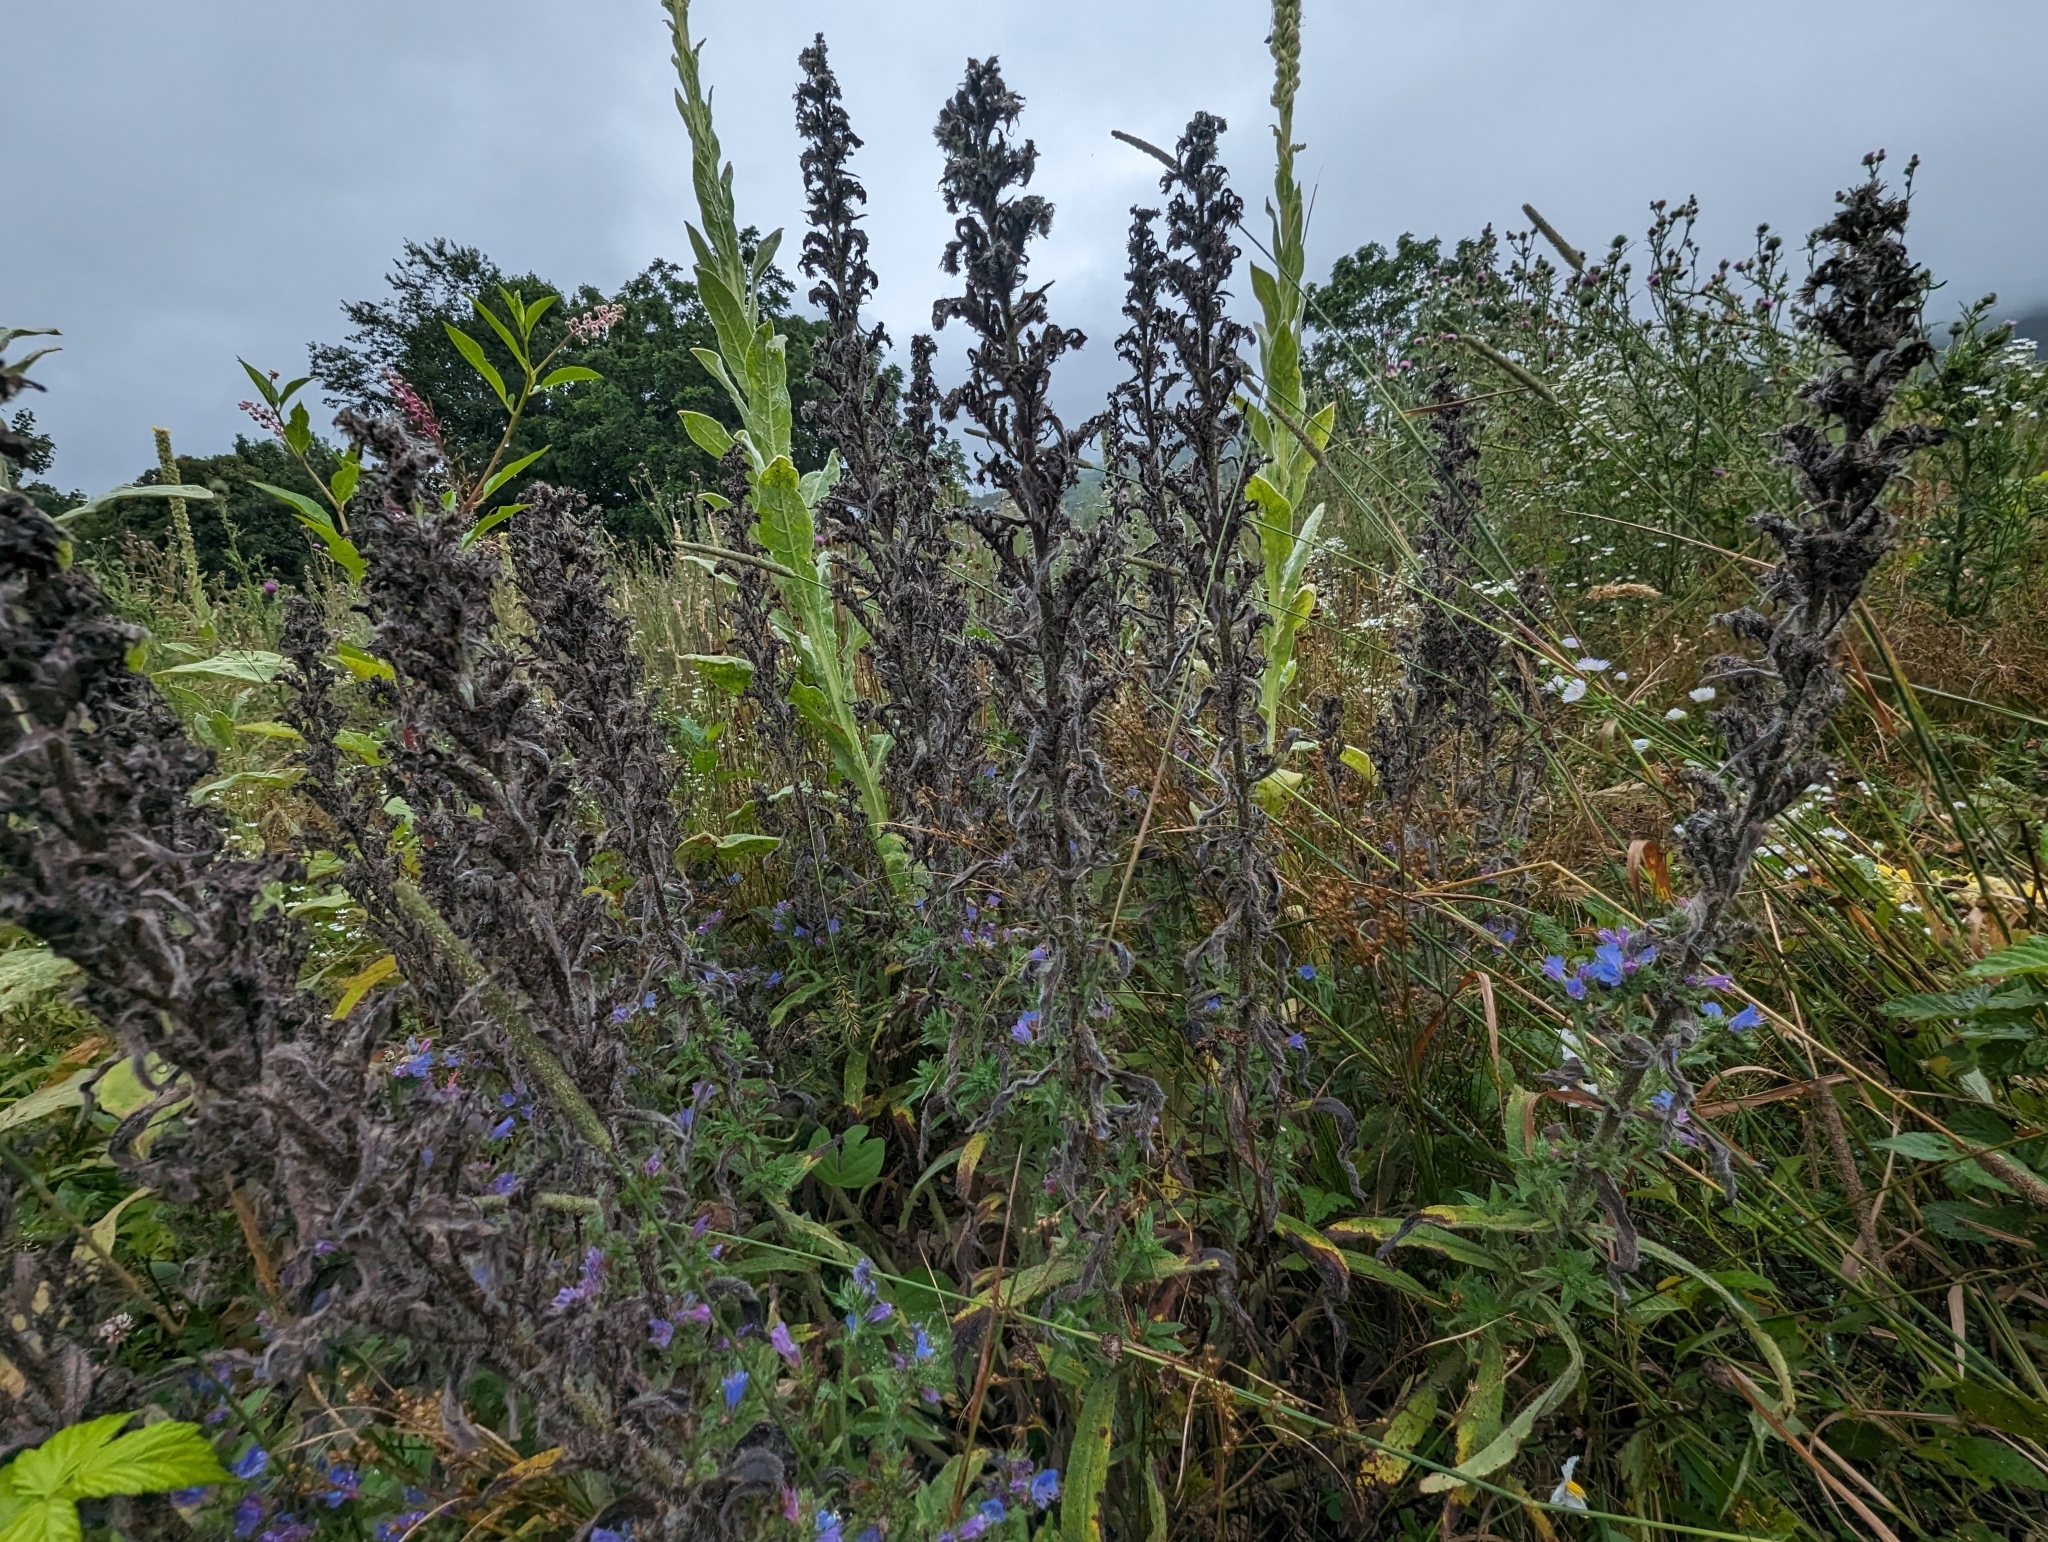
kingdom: Plantae
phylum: Tracheophyta
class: Magnoliopsida
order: Boraginales
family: Boraginaceae
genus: Echium
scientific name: Echium vulgare
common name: Common viper's bugloss
